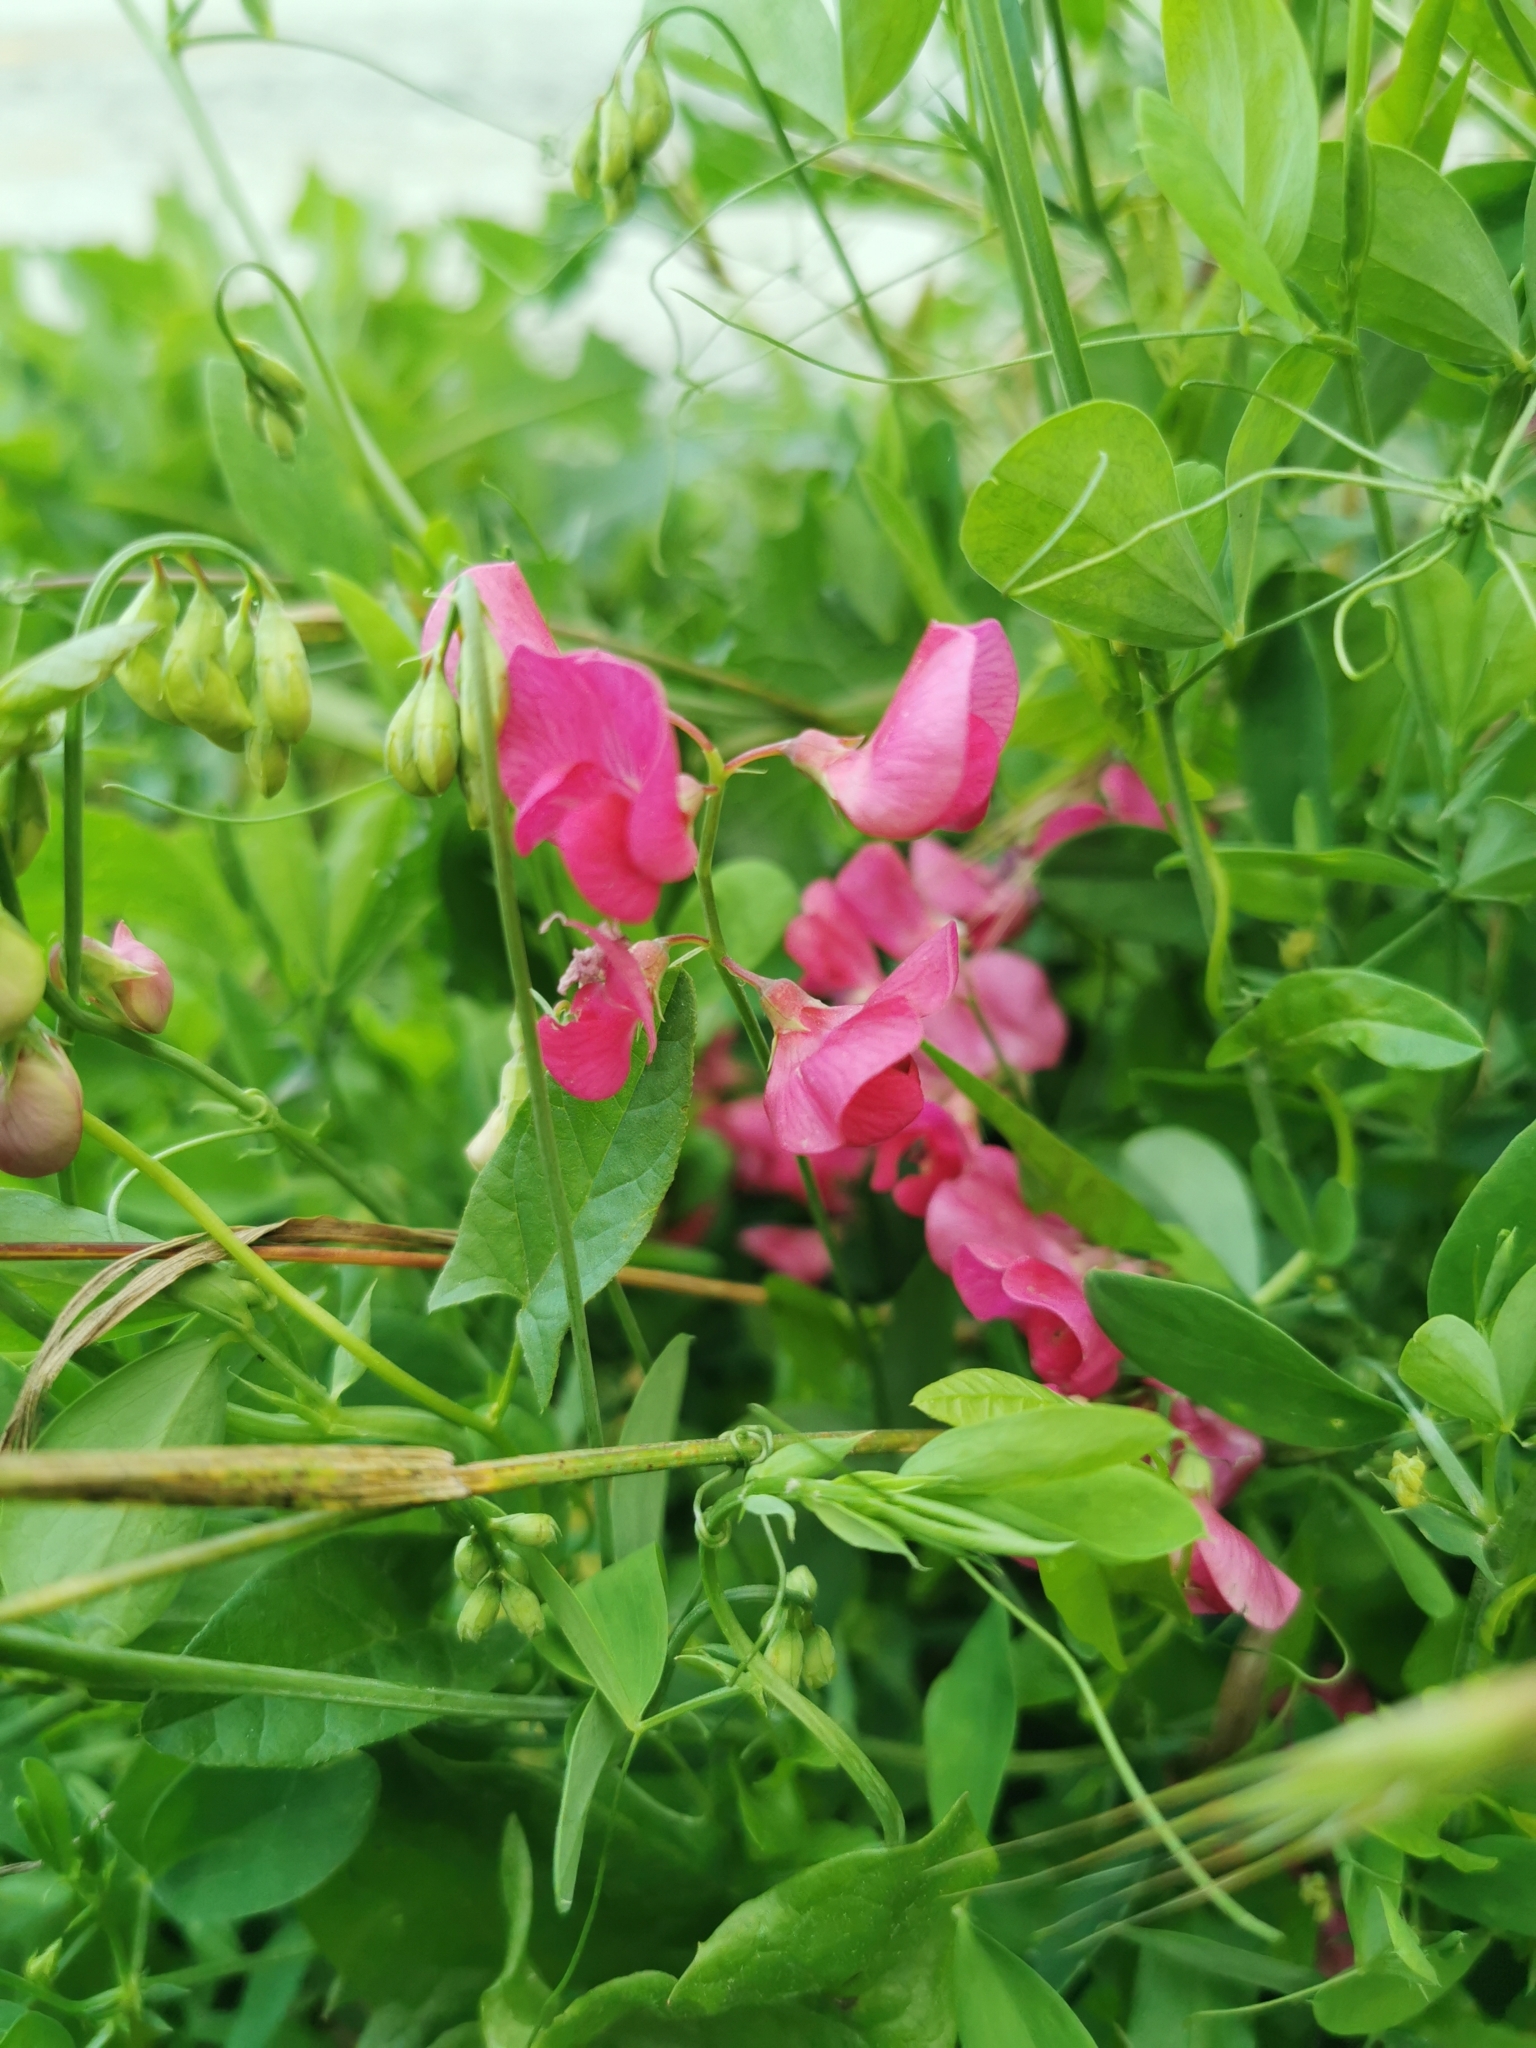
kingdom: Plantae
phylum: Tracheophyta
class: Magnoliopsida
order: Fabales
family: Fabaceae
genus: Lathyrus
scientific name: Lathyrus tuberosus
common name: Tuberous pea
